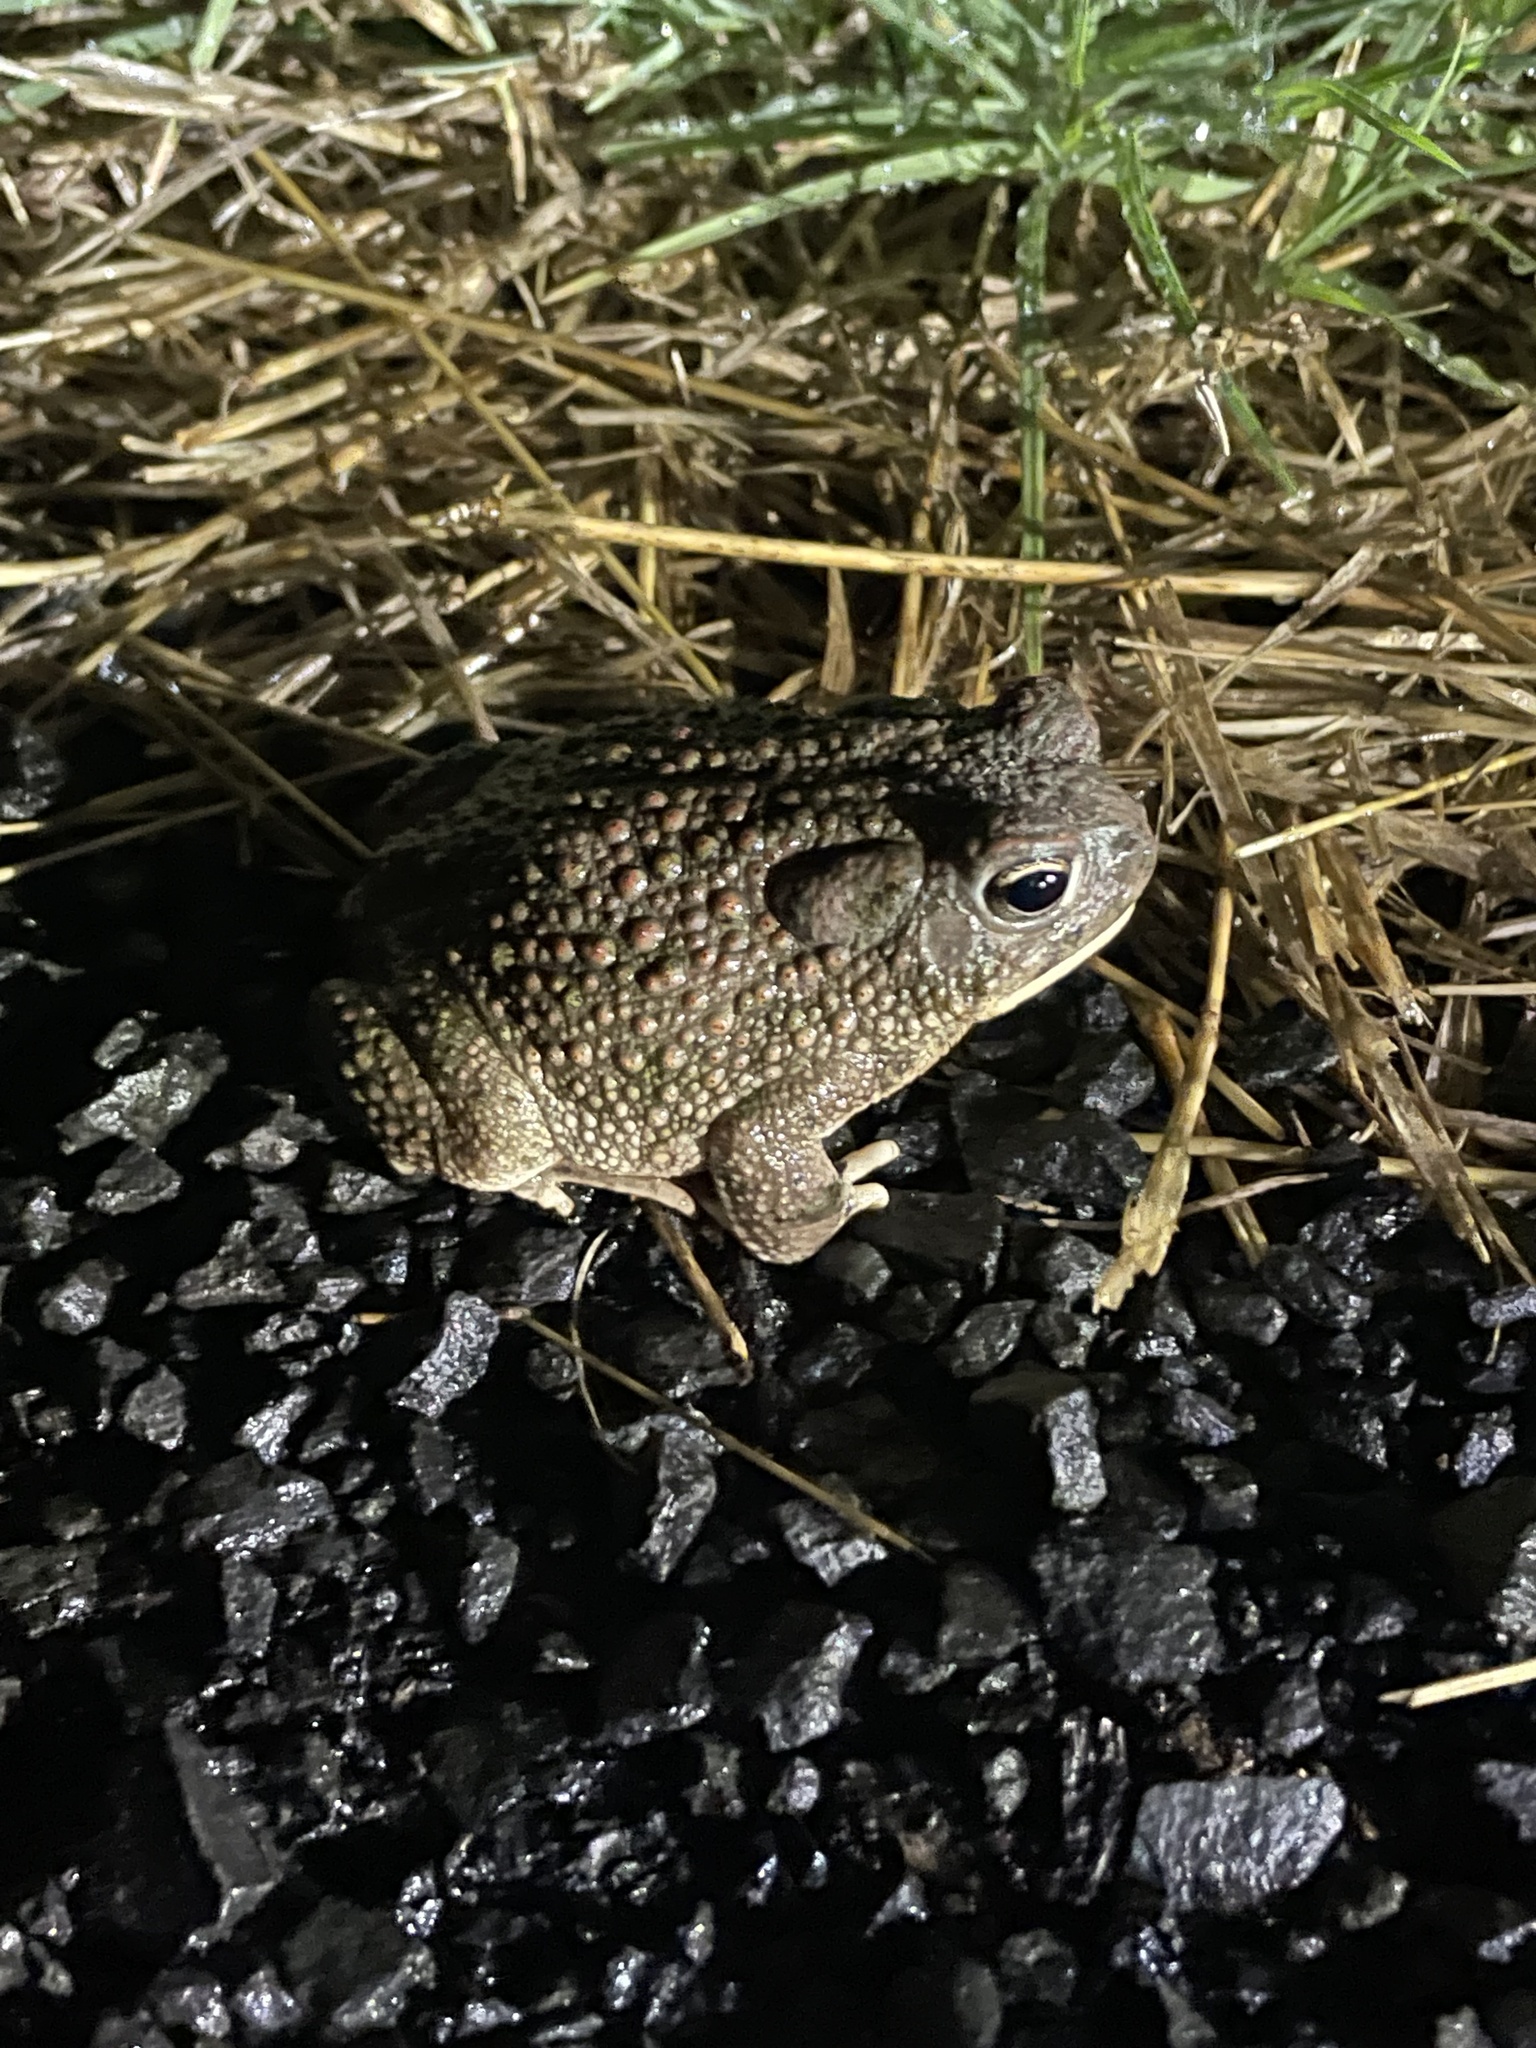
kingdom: Animalia
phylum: Chordata
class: Amphibia
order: Anura
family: Bufonidae
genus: Anaxyrus
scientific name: Anaxyrus speciosus
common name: Texas toad
